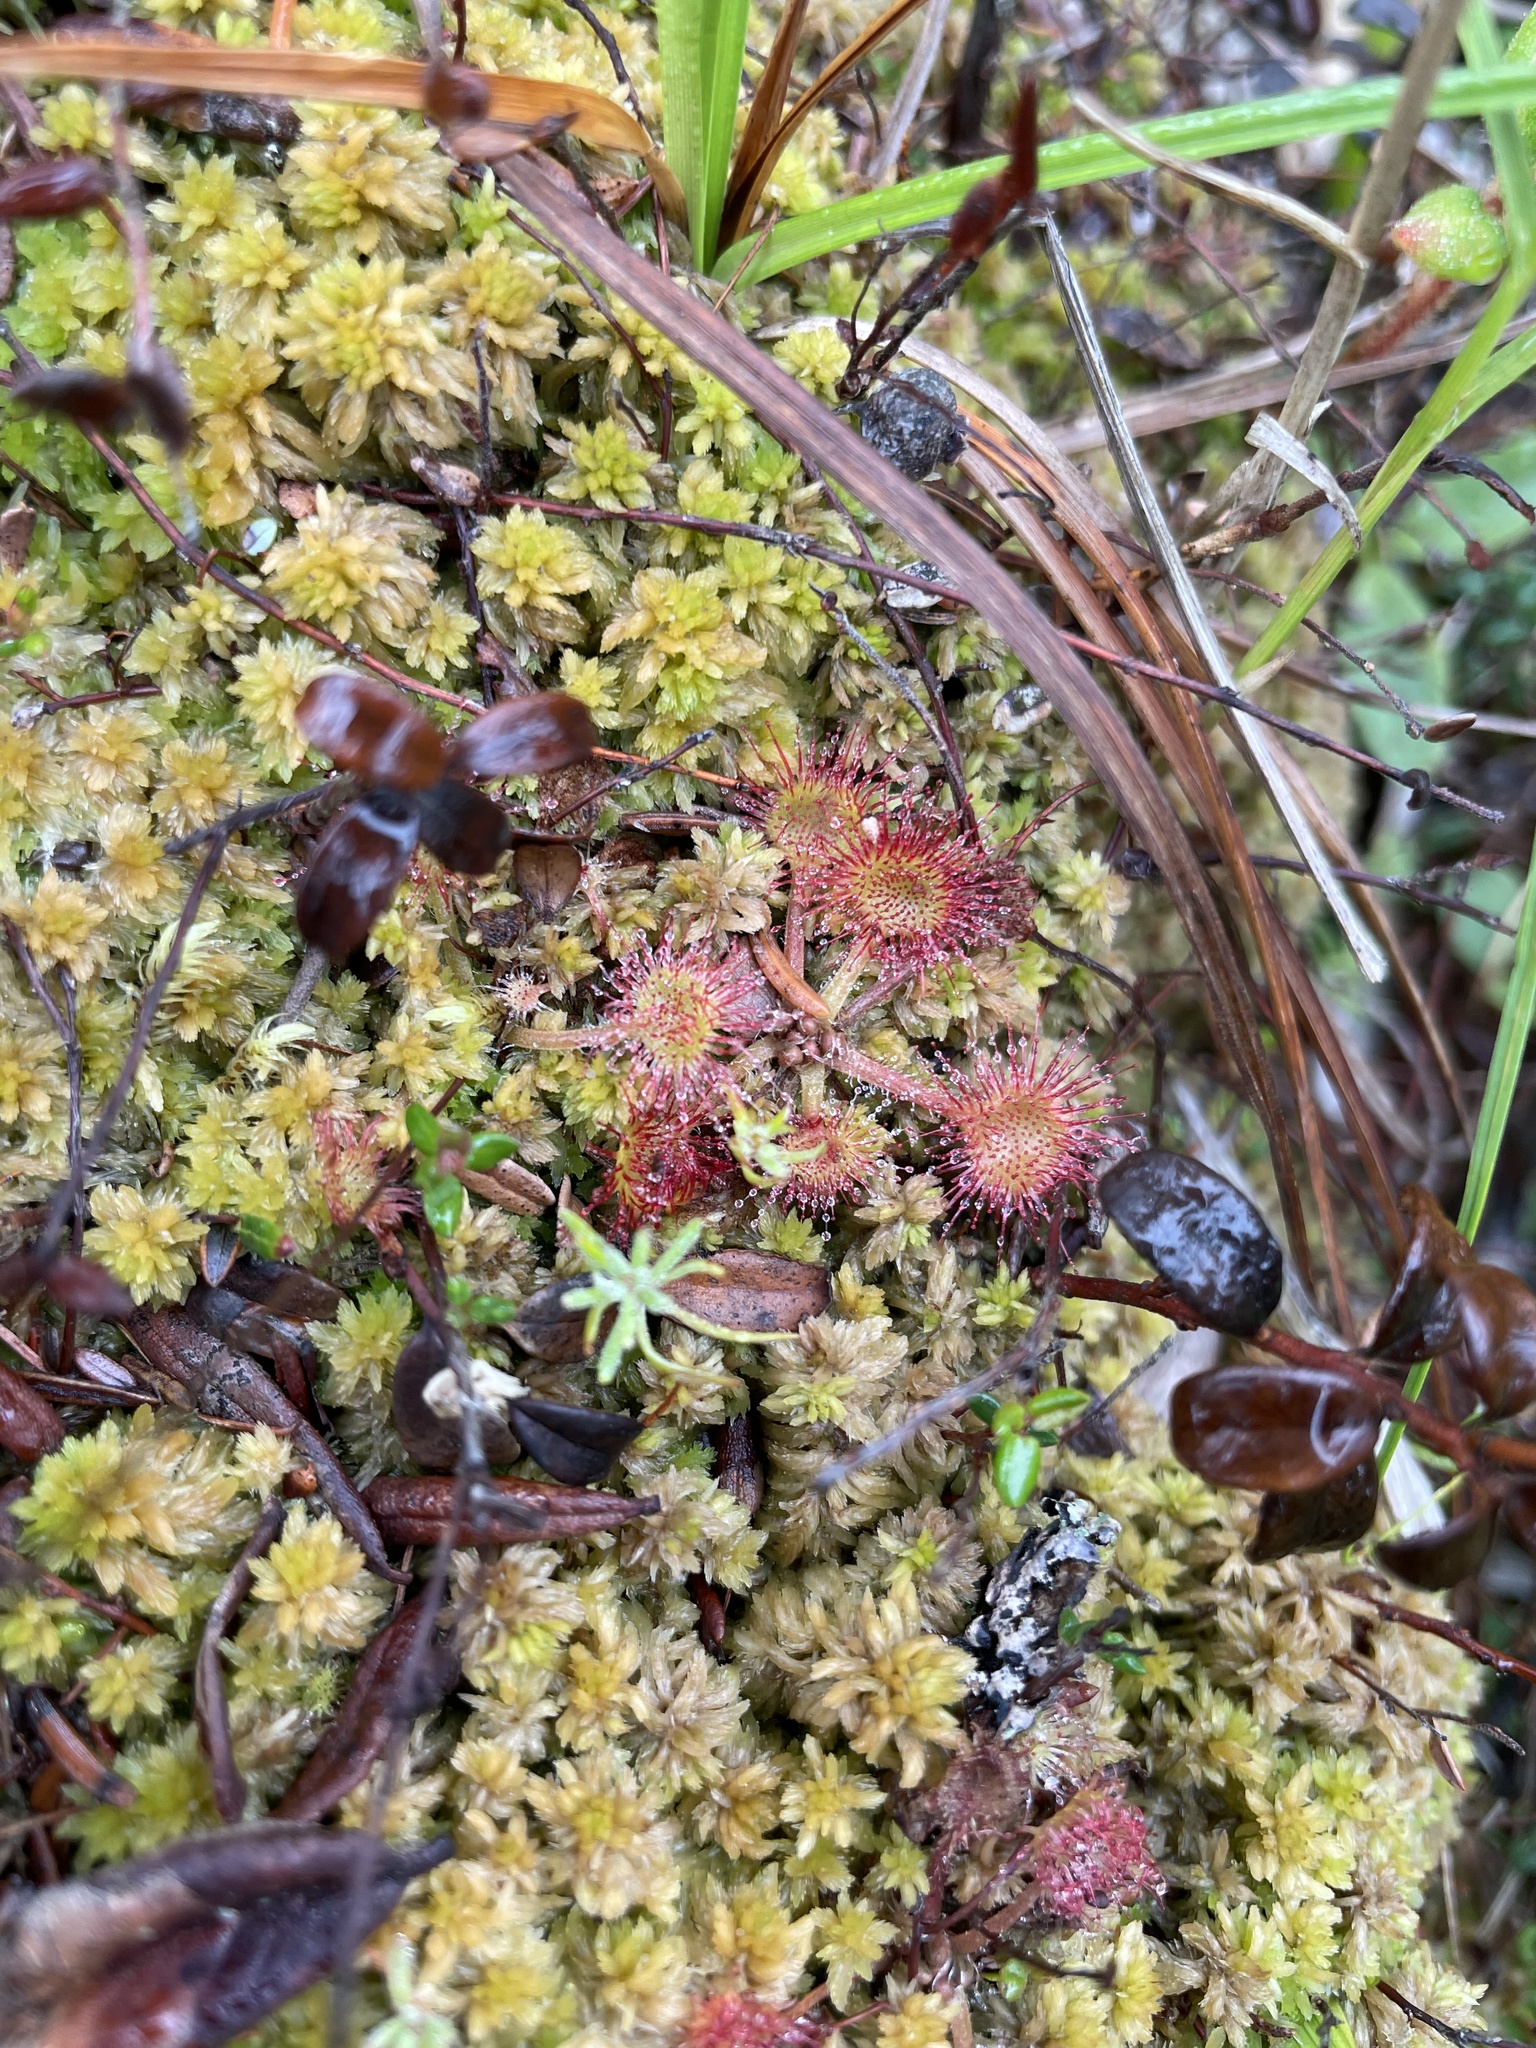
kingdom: Plantae
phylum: Tracheophyta
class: Magnoliopsida
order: Caryophyllales
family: Droseraceae
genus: Drosera
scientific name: Drosera rotundifolia
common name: Round-leaved sundew
